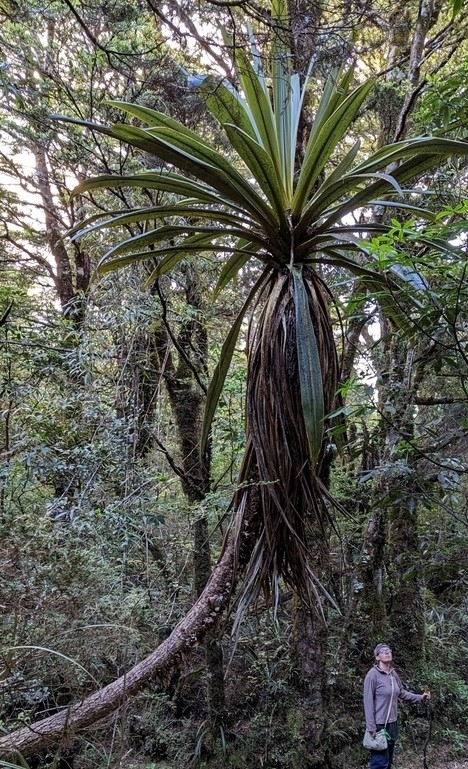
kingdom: Plantae
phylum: Tracheophyta
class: Liliopsida
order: Asparagales
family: Asparagaceae
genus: Cordyline
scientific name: Cordyline indivisa
